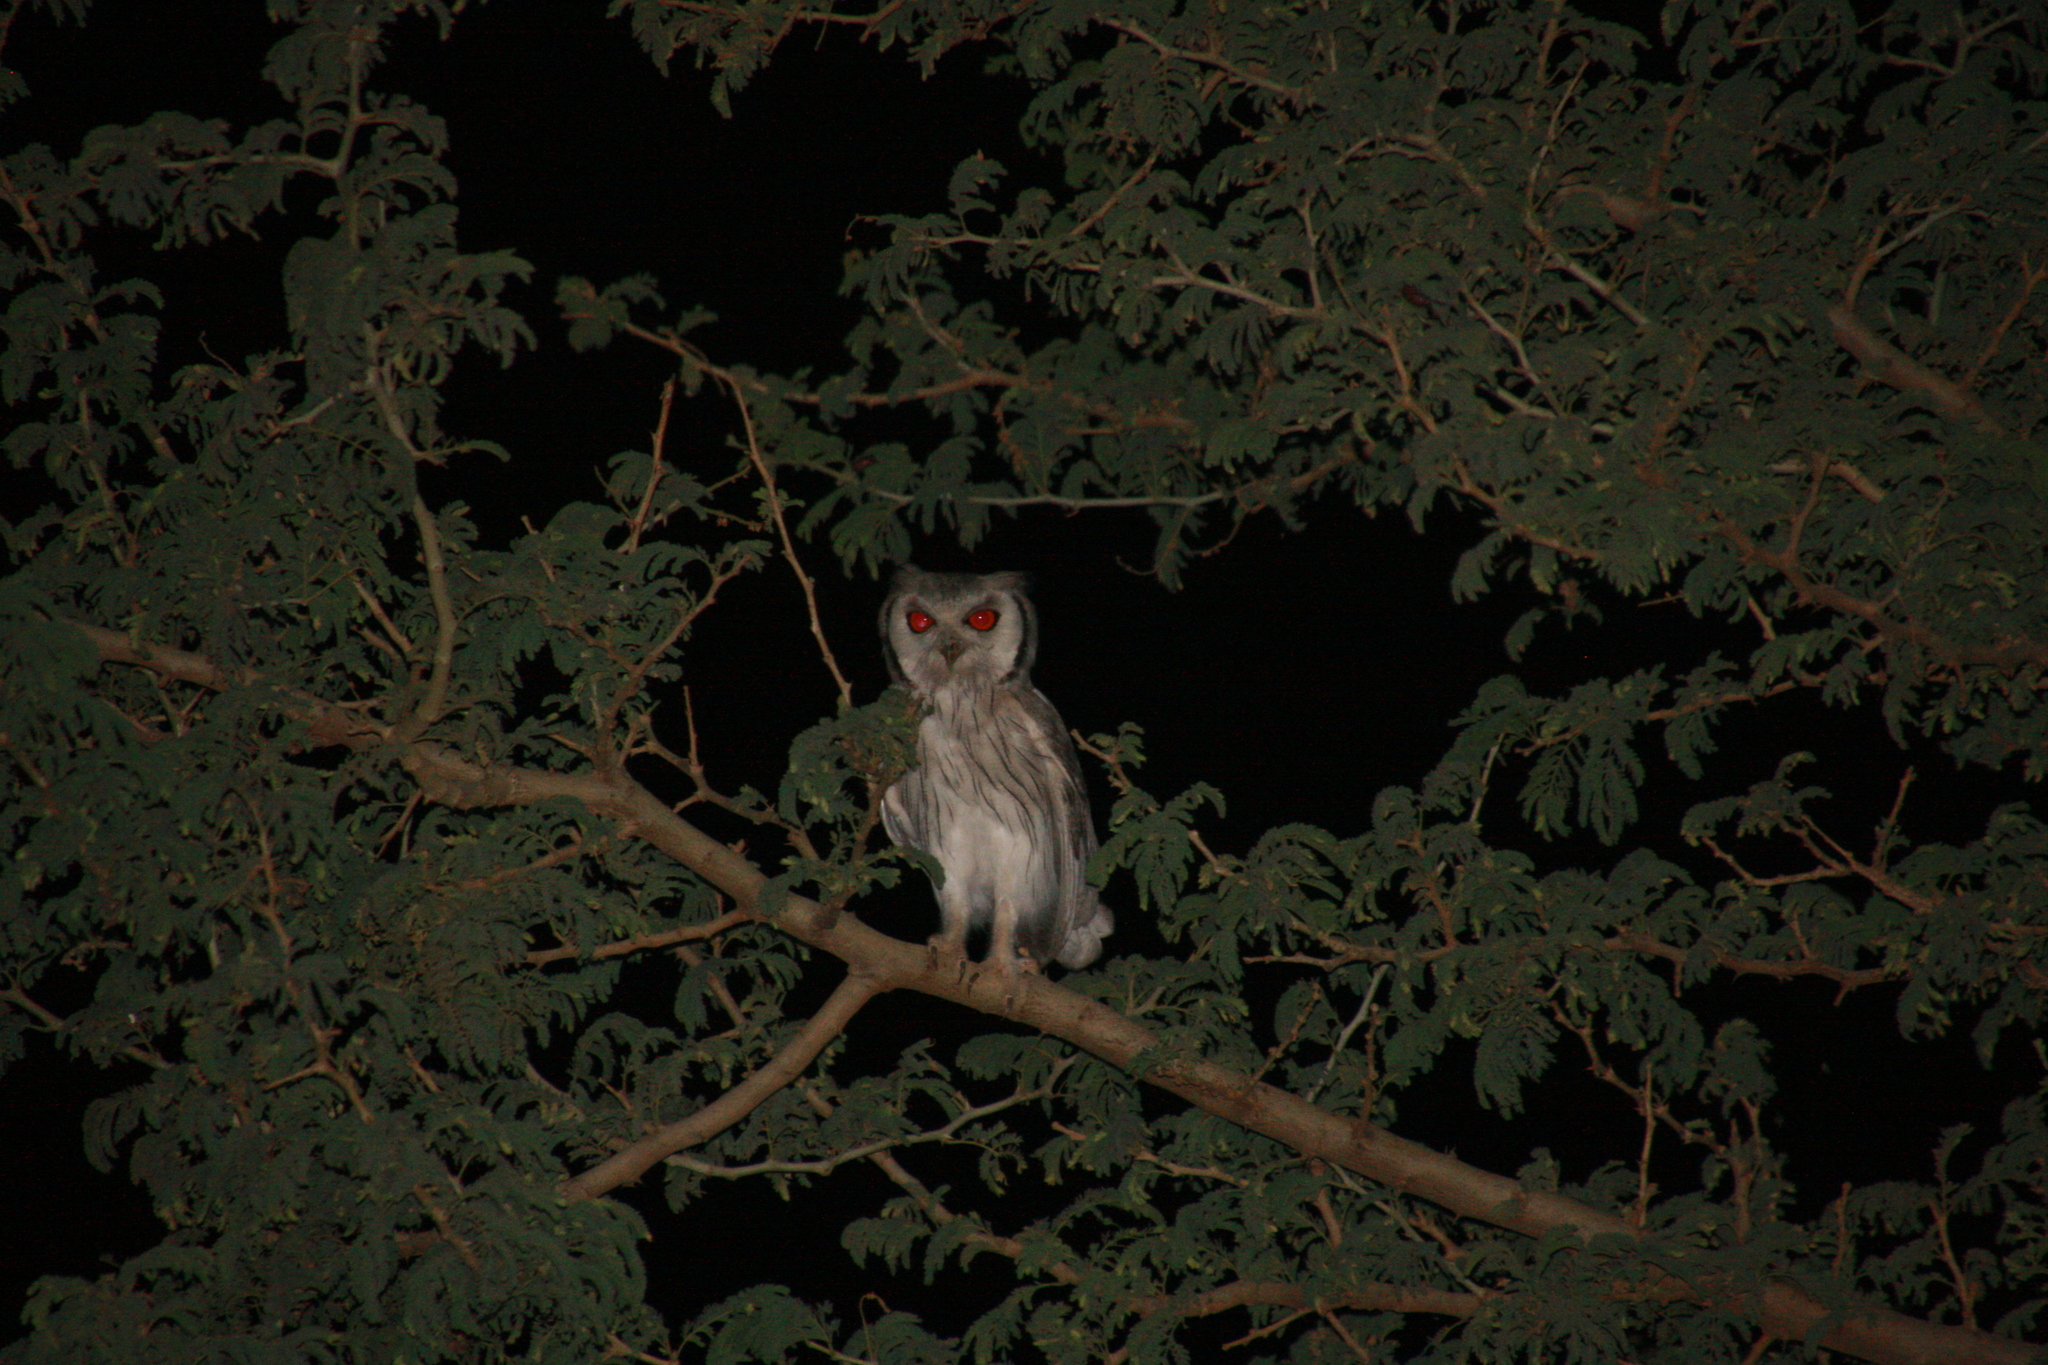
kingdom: Animalia
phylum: Chordata
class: Aves
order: Strigiformes
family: Strigidae
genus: Ptilopsis
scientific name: Ptilopsis leucotis
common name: Northern white-faced owl
